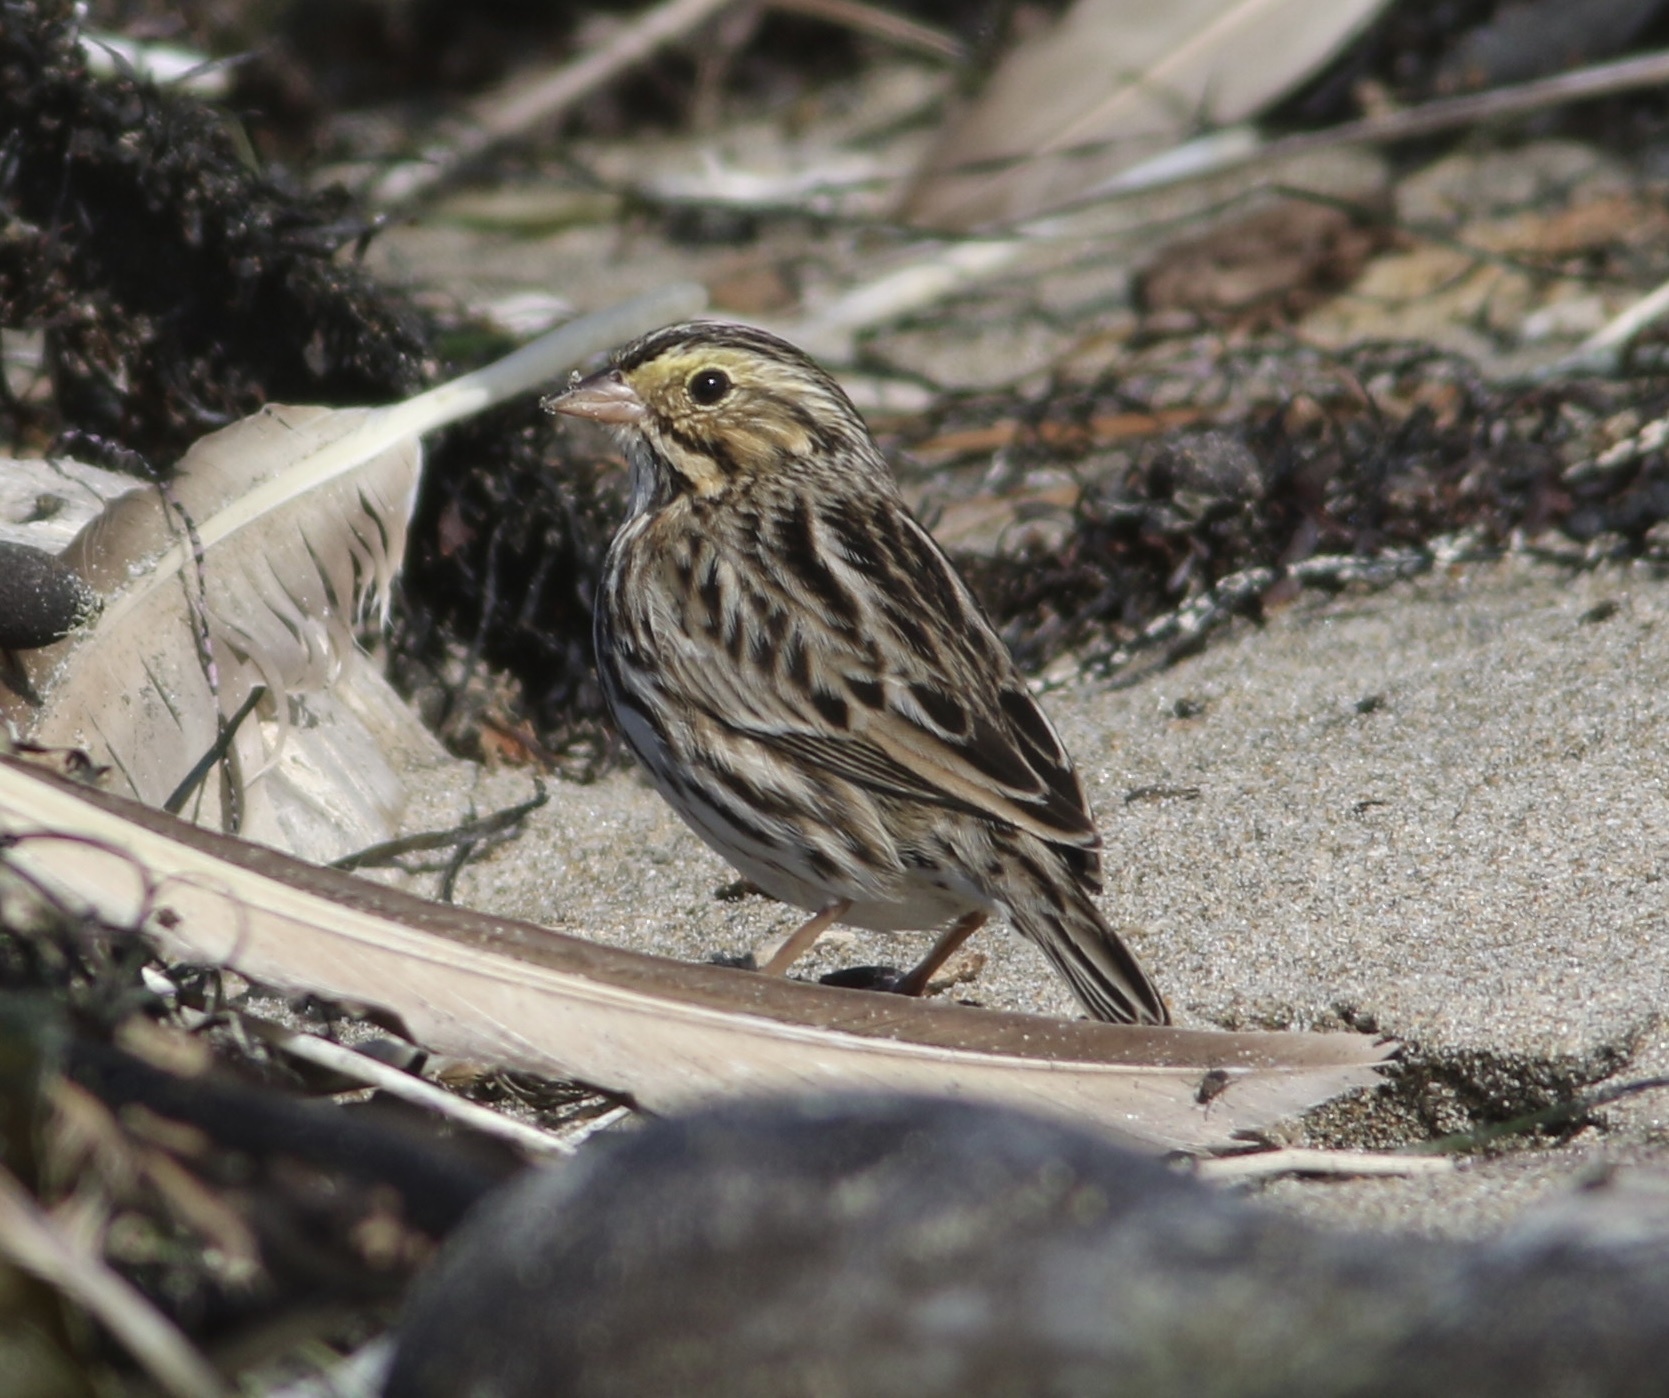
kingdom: Animalia
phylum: Chordata
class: Aves
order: Passeriformes
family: Passerellidae
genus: Passerculus
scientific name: Passerculus sandwichensis
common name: Savannah sparrow
